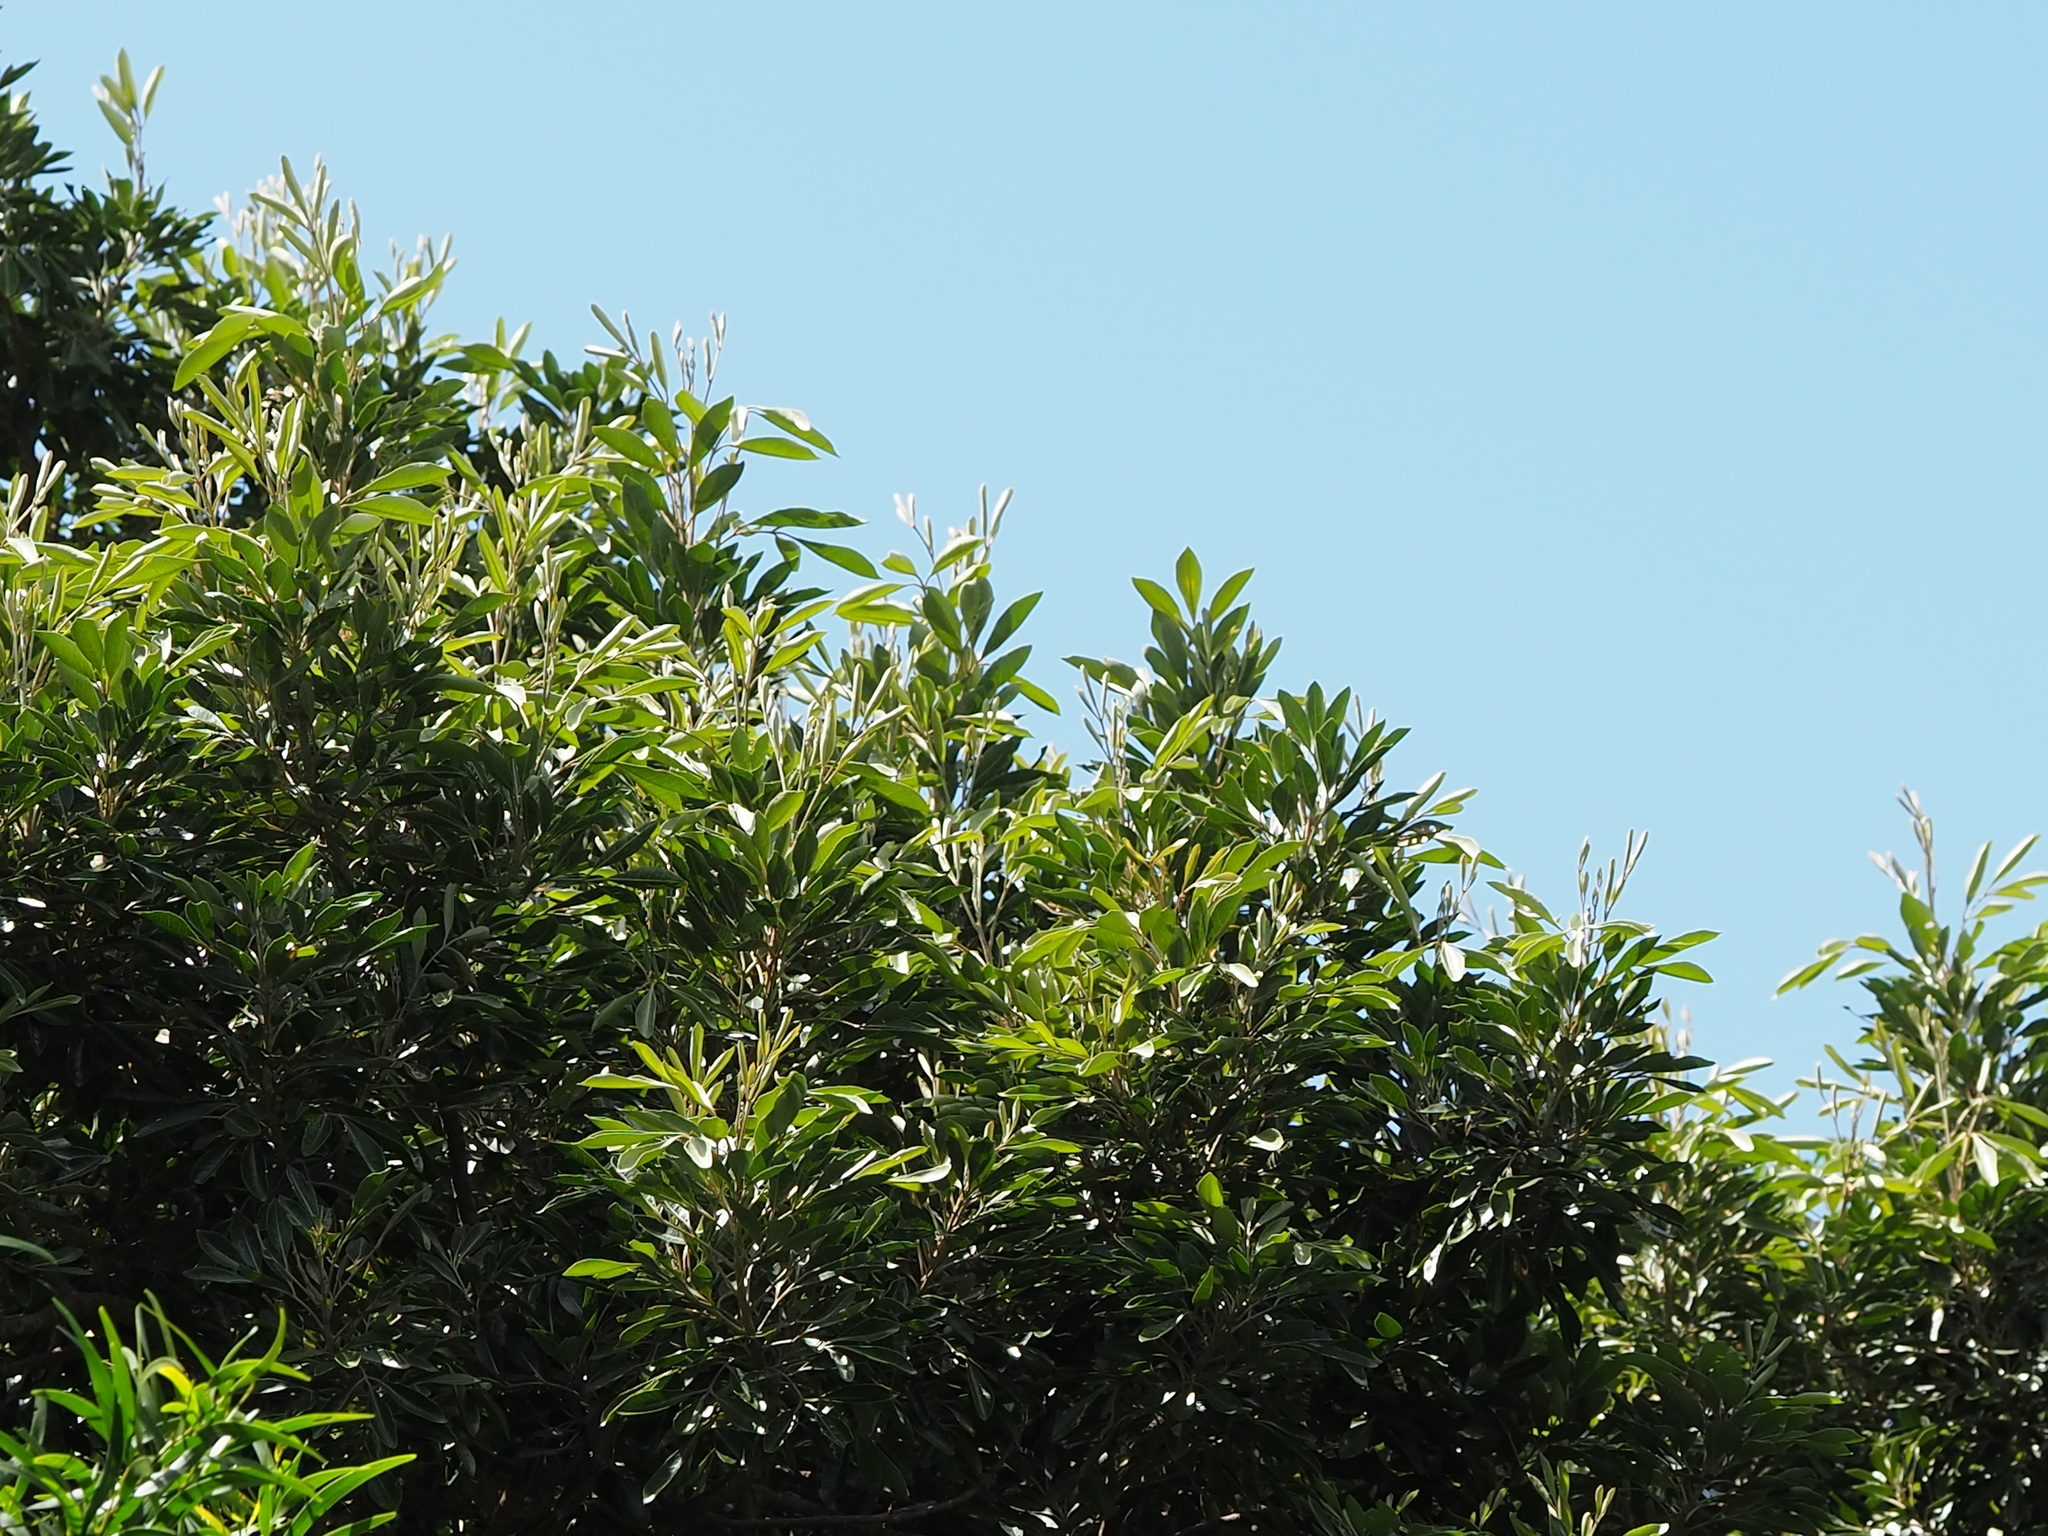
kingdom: Plantae
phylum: Tracheophyta
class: Magnoliopsida
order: Sapindales
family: Meliaceae
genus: Aglaia
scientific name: Aglaia elaeagnoidea
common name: Droopyleaf
